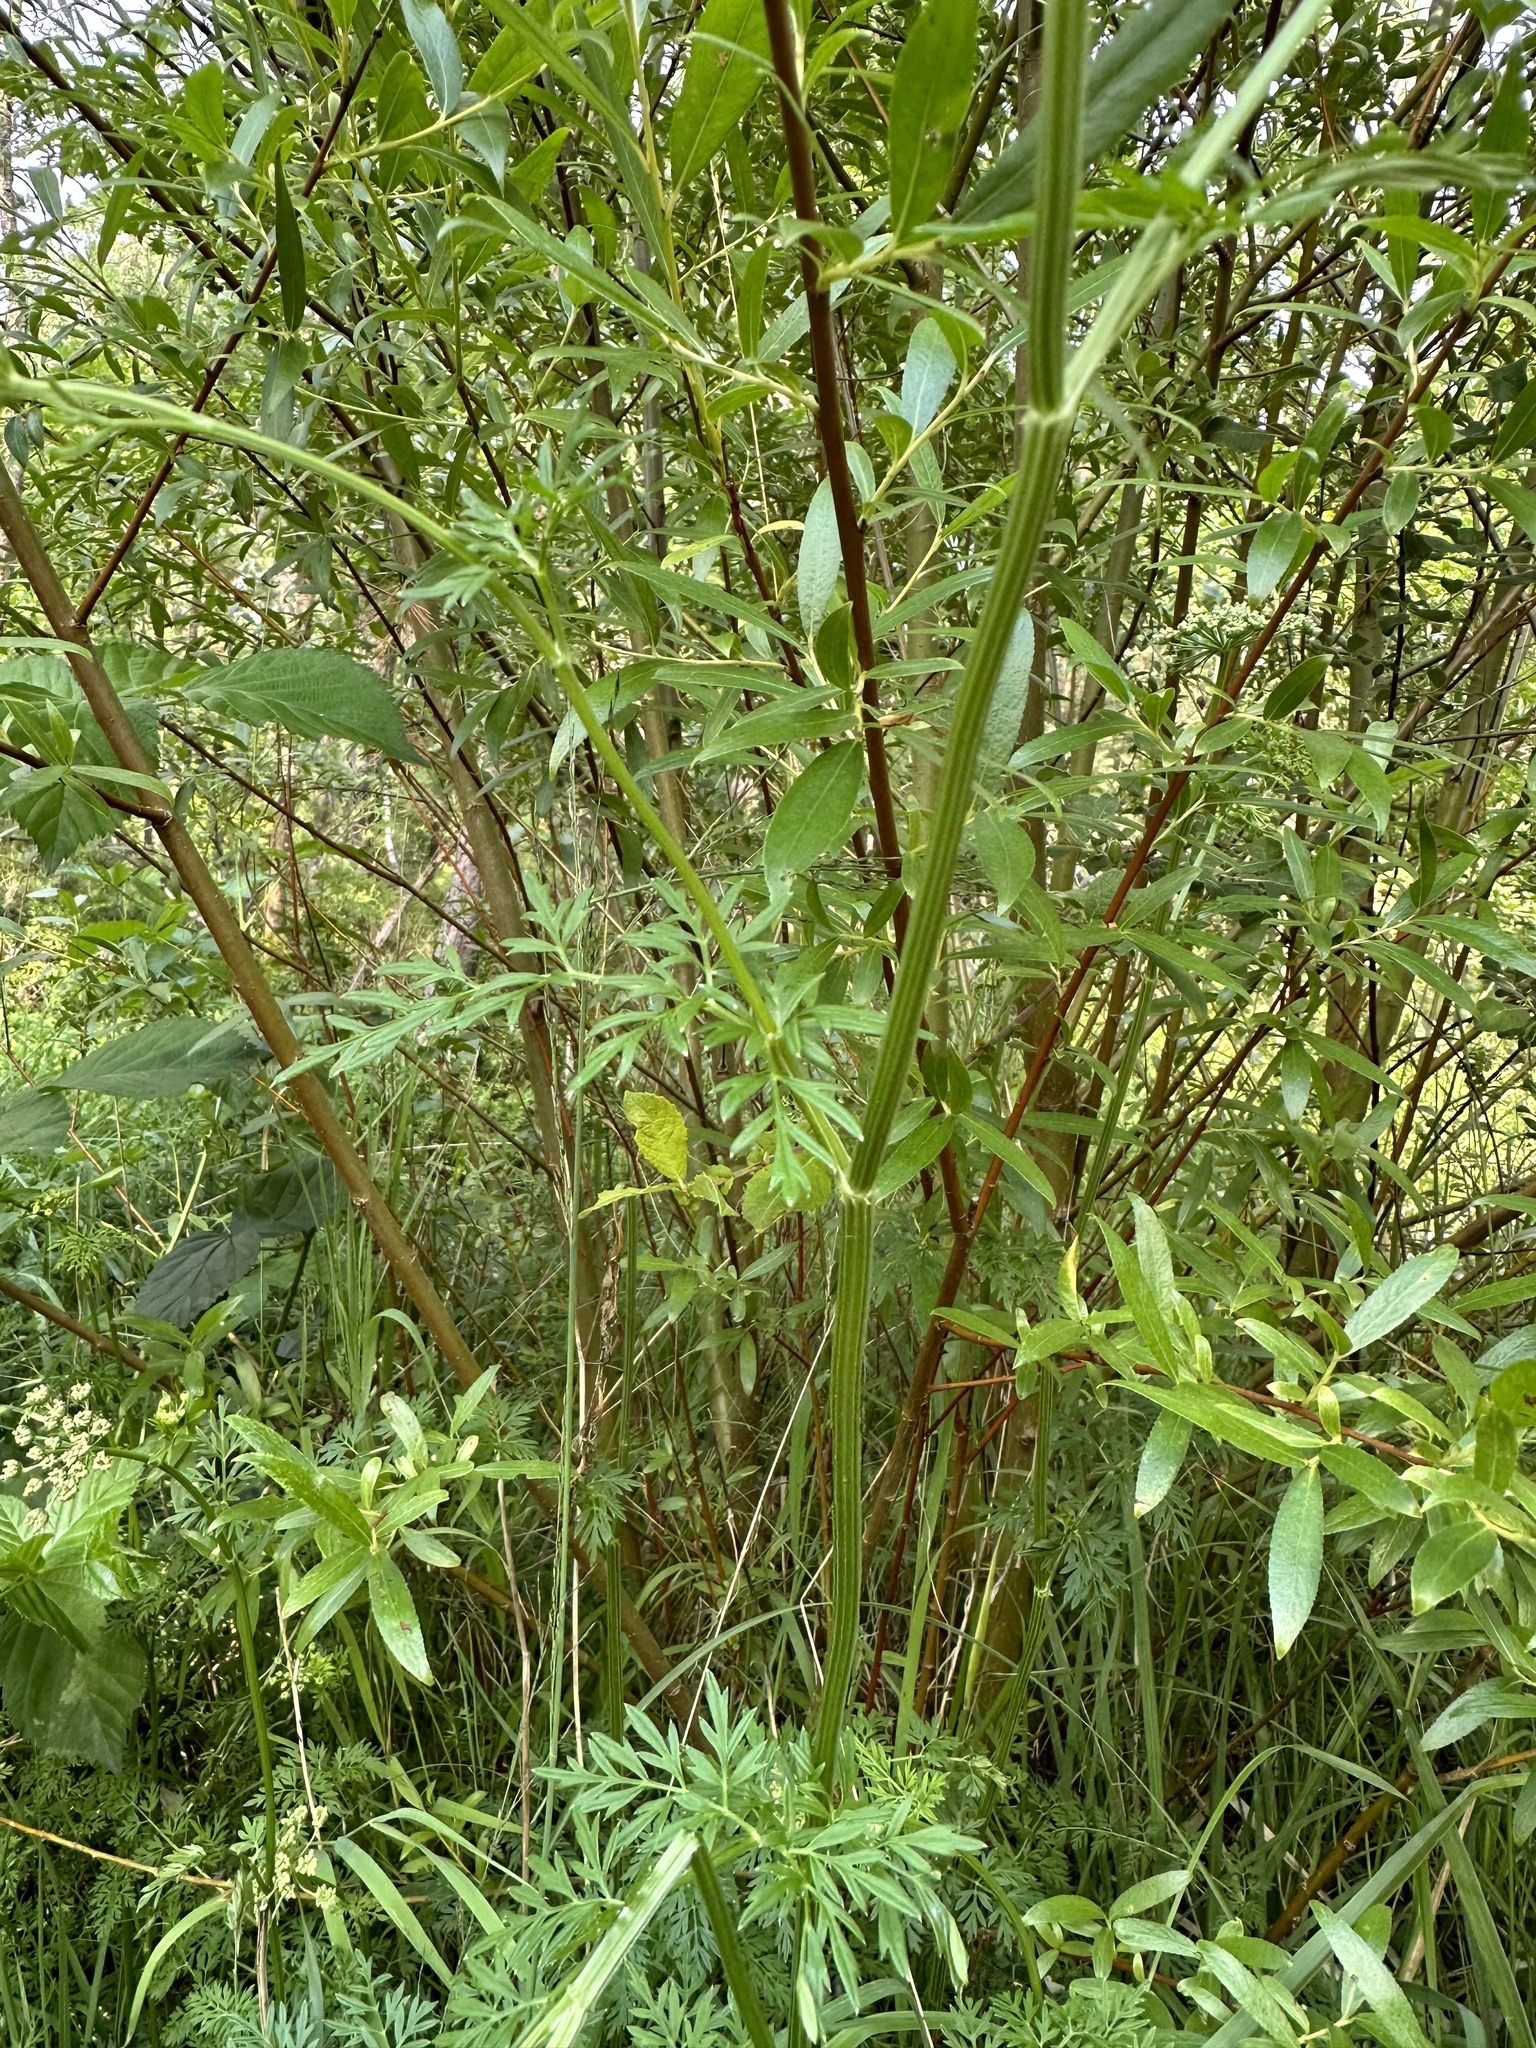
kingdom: Plantae
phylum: Tracheophyta
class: Magnoliopsida
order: Apiales
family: Apiaceae
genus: Selinum
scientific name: Selinum carvifolia
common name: Cambridge milk-parsley
